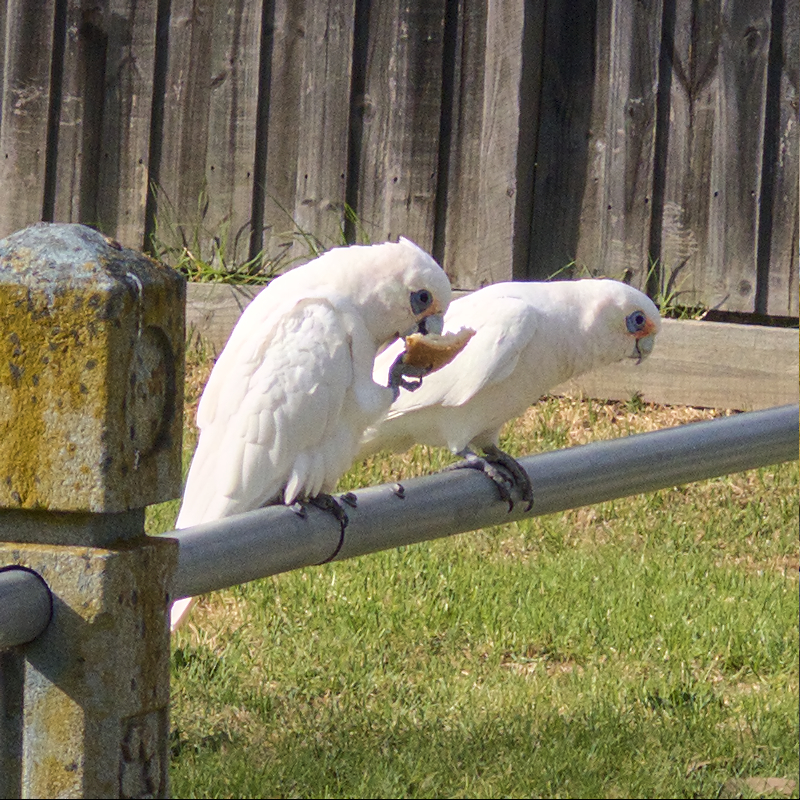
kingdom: Animalia
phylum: Chordata
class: Aves
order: Psittaciformes
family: Psittacidae
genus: Cacatua
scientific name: Cacatua sanguinea
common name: Little corella
